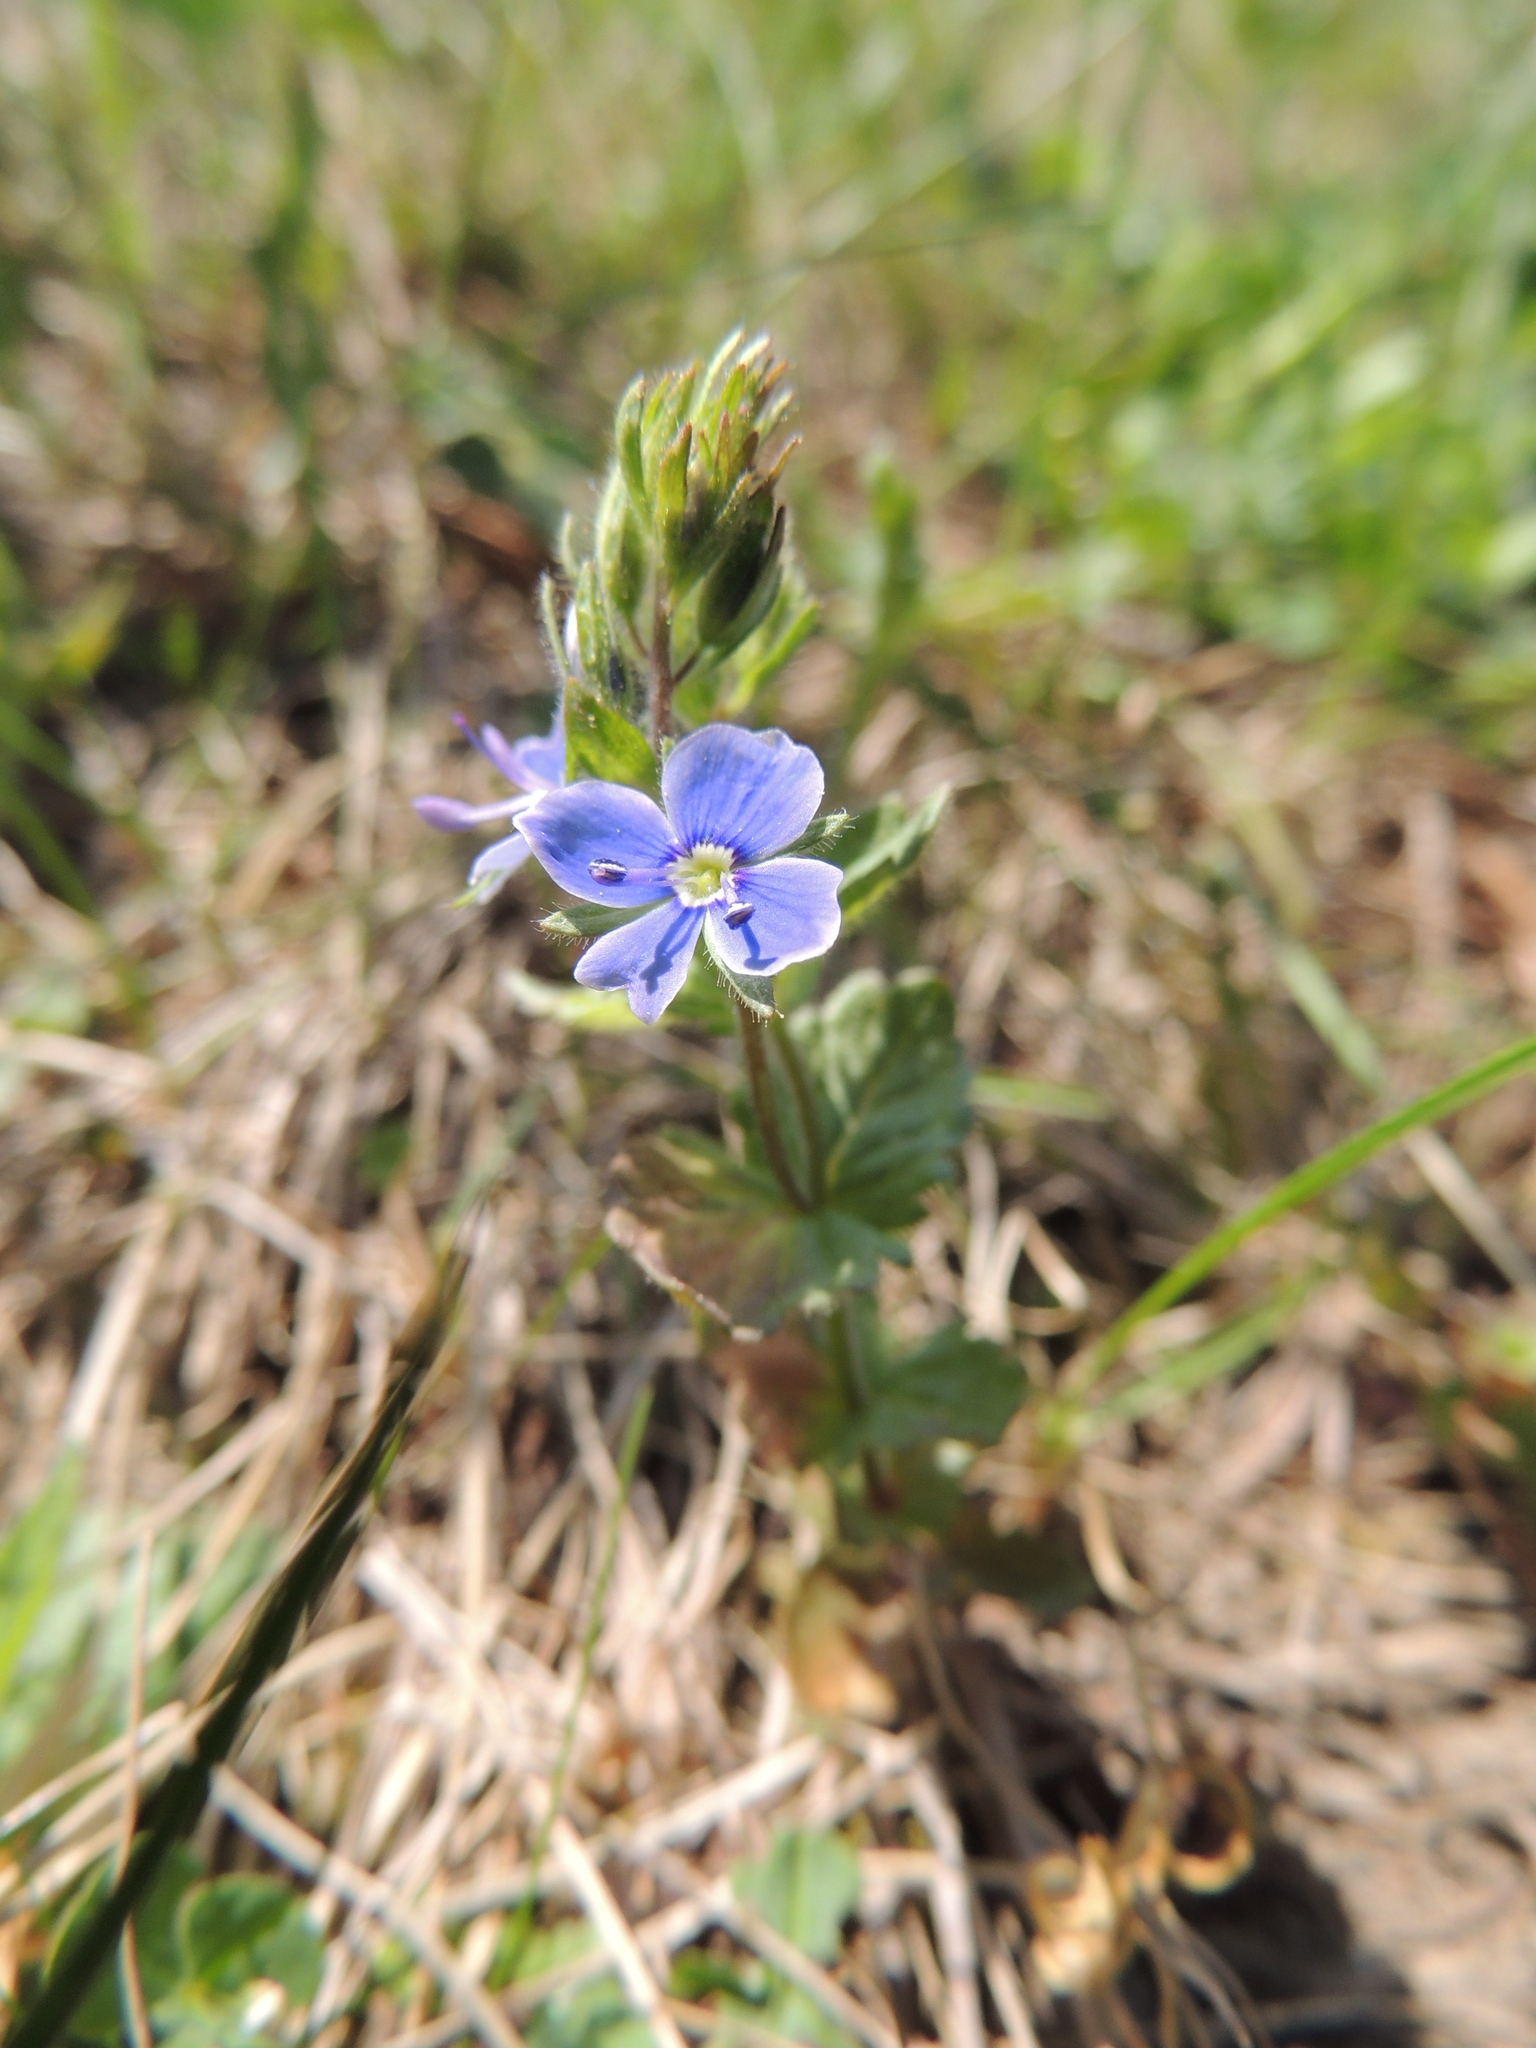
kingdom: Plantae
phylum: Tracheophyta
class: Magnoliopsida
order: Lamiales
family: Plantaginaceae
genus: Veronica
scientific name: Veronica chamaedrys
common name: Germander speedwell
